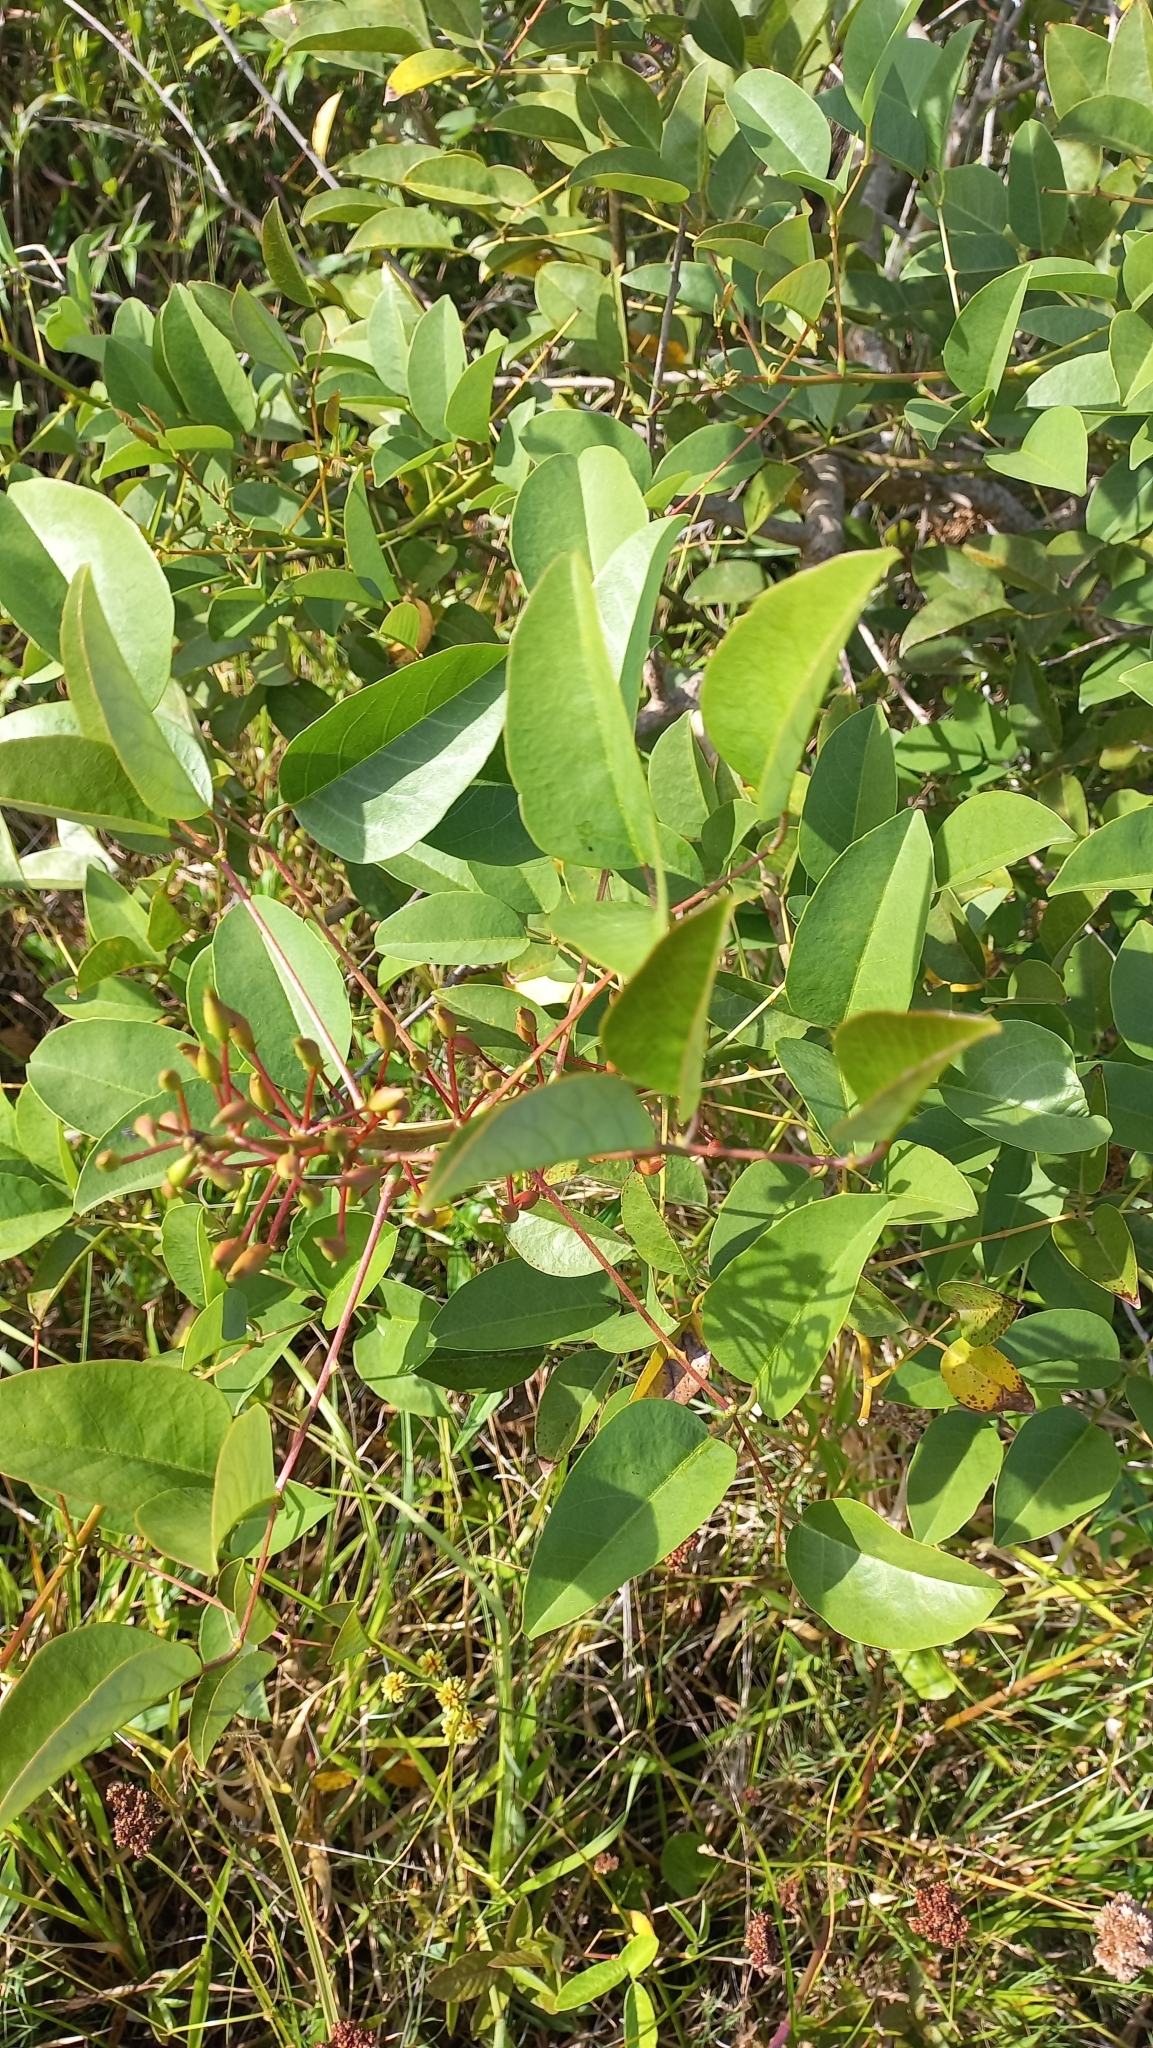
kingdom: Plantae
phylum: Tracheophyta
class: Magnoliopsida
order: Fabales
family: Fabaceae
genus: Erythrina
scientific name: Erythrina crista-galli
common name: Cockspur coral tree
